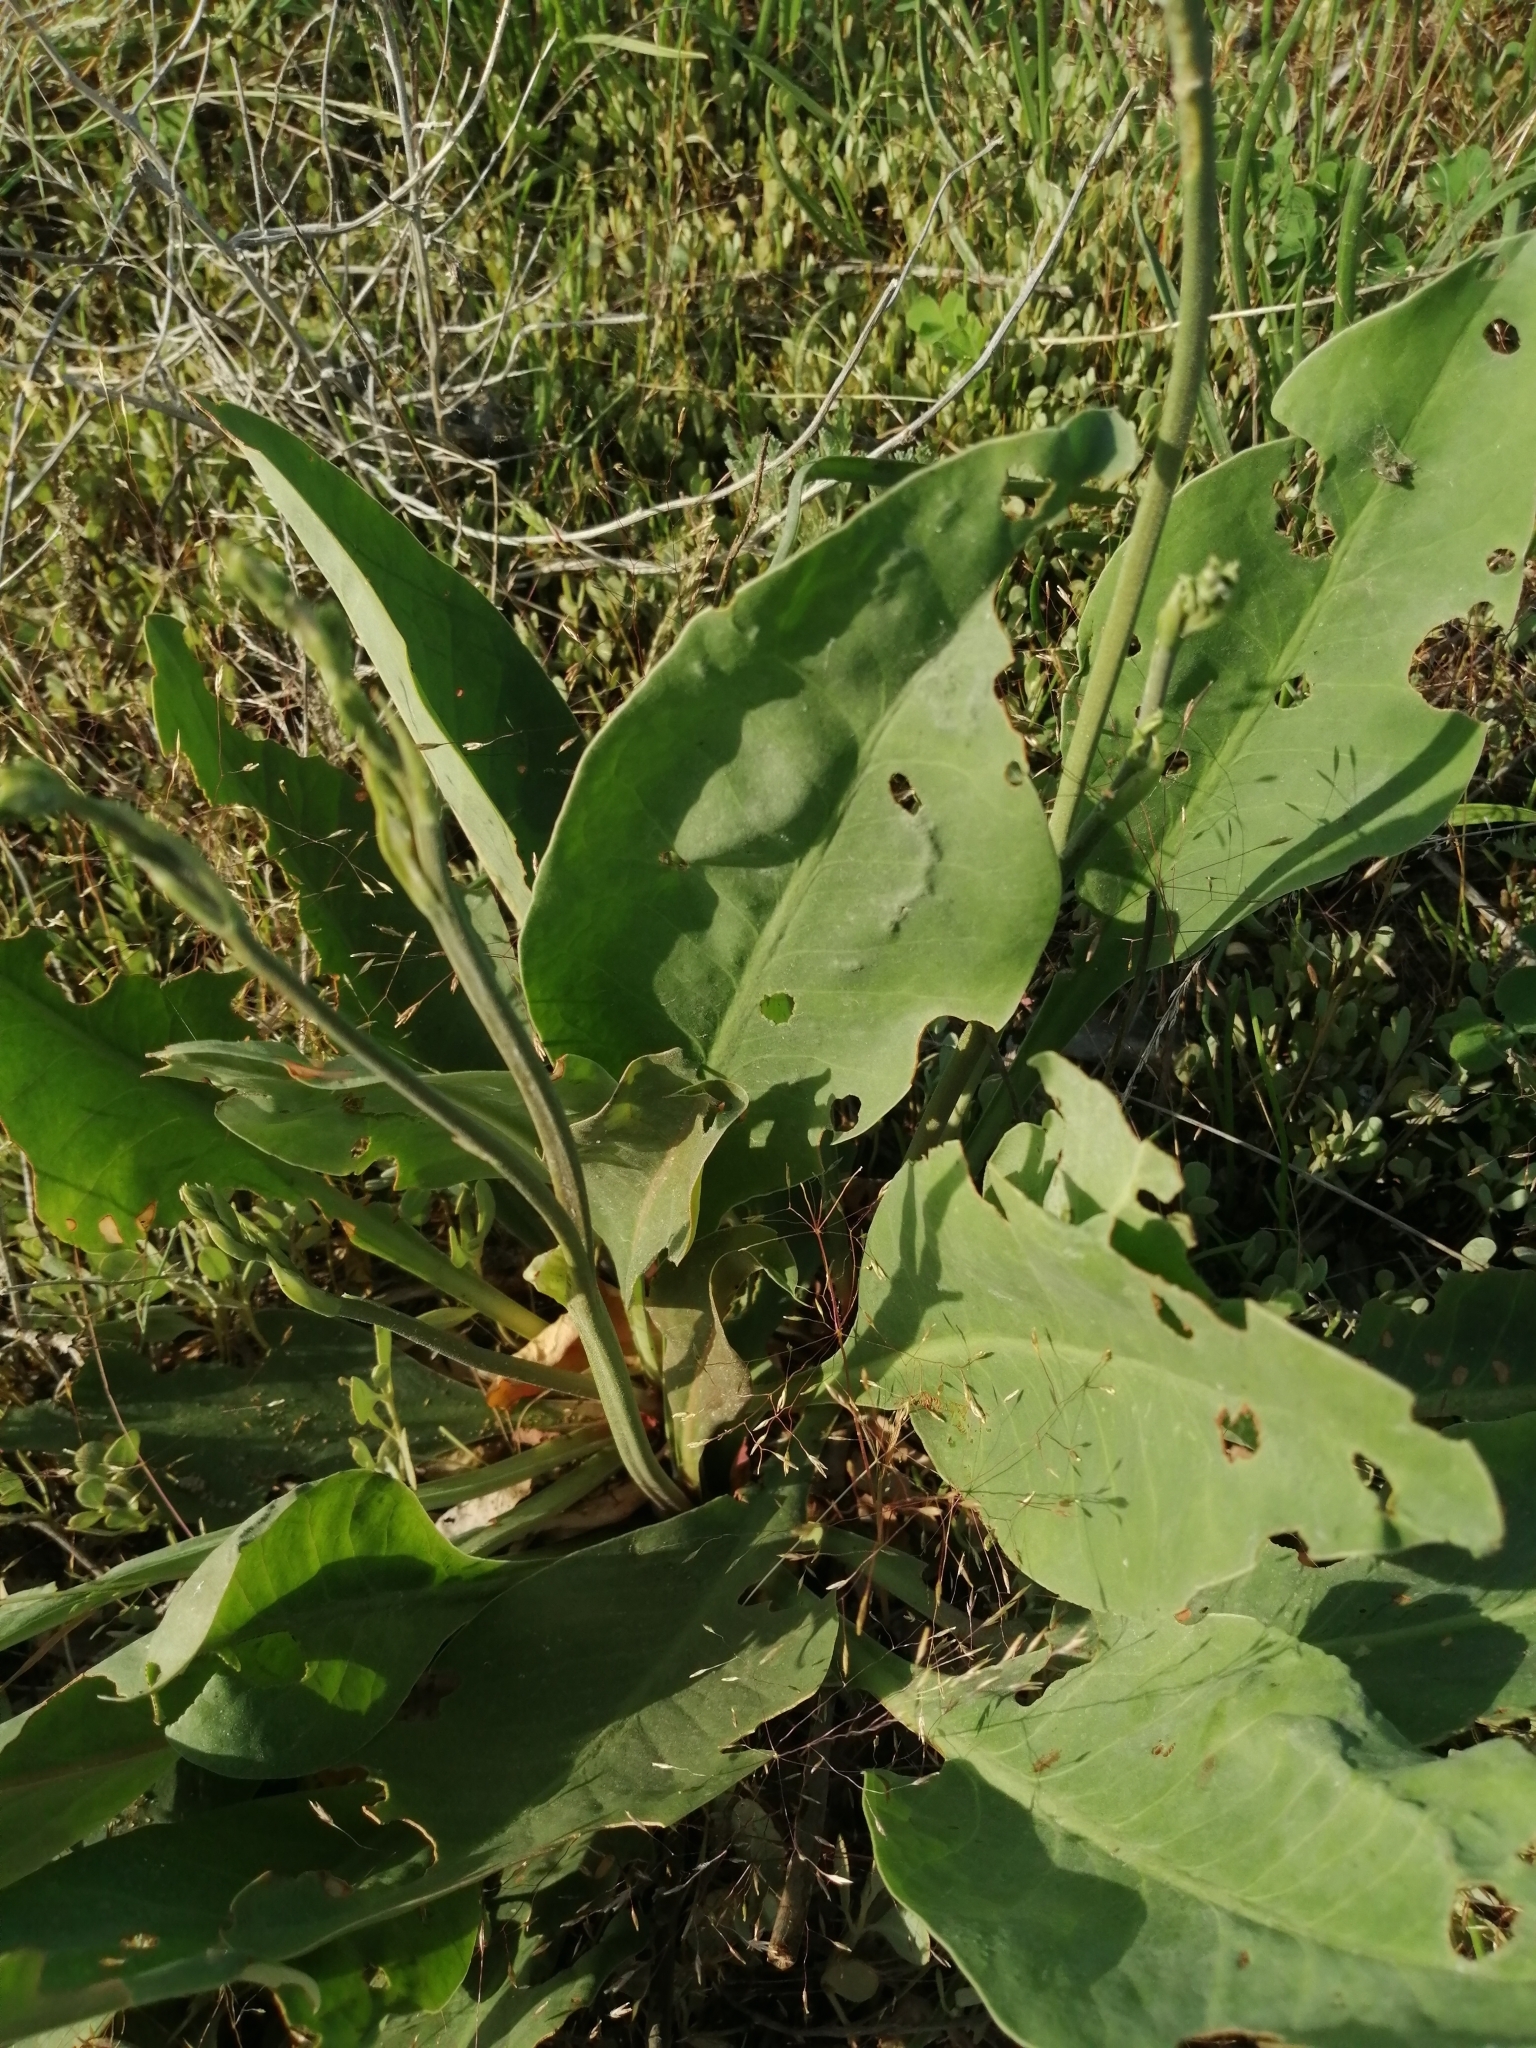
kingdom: Plantae
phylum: Tracheophyta
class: Magnoliopsida
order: Caryophyllales
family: Plumbaginaceae
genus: Limonium
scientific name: Limonium gmelini
